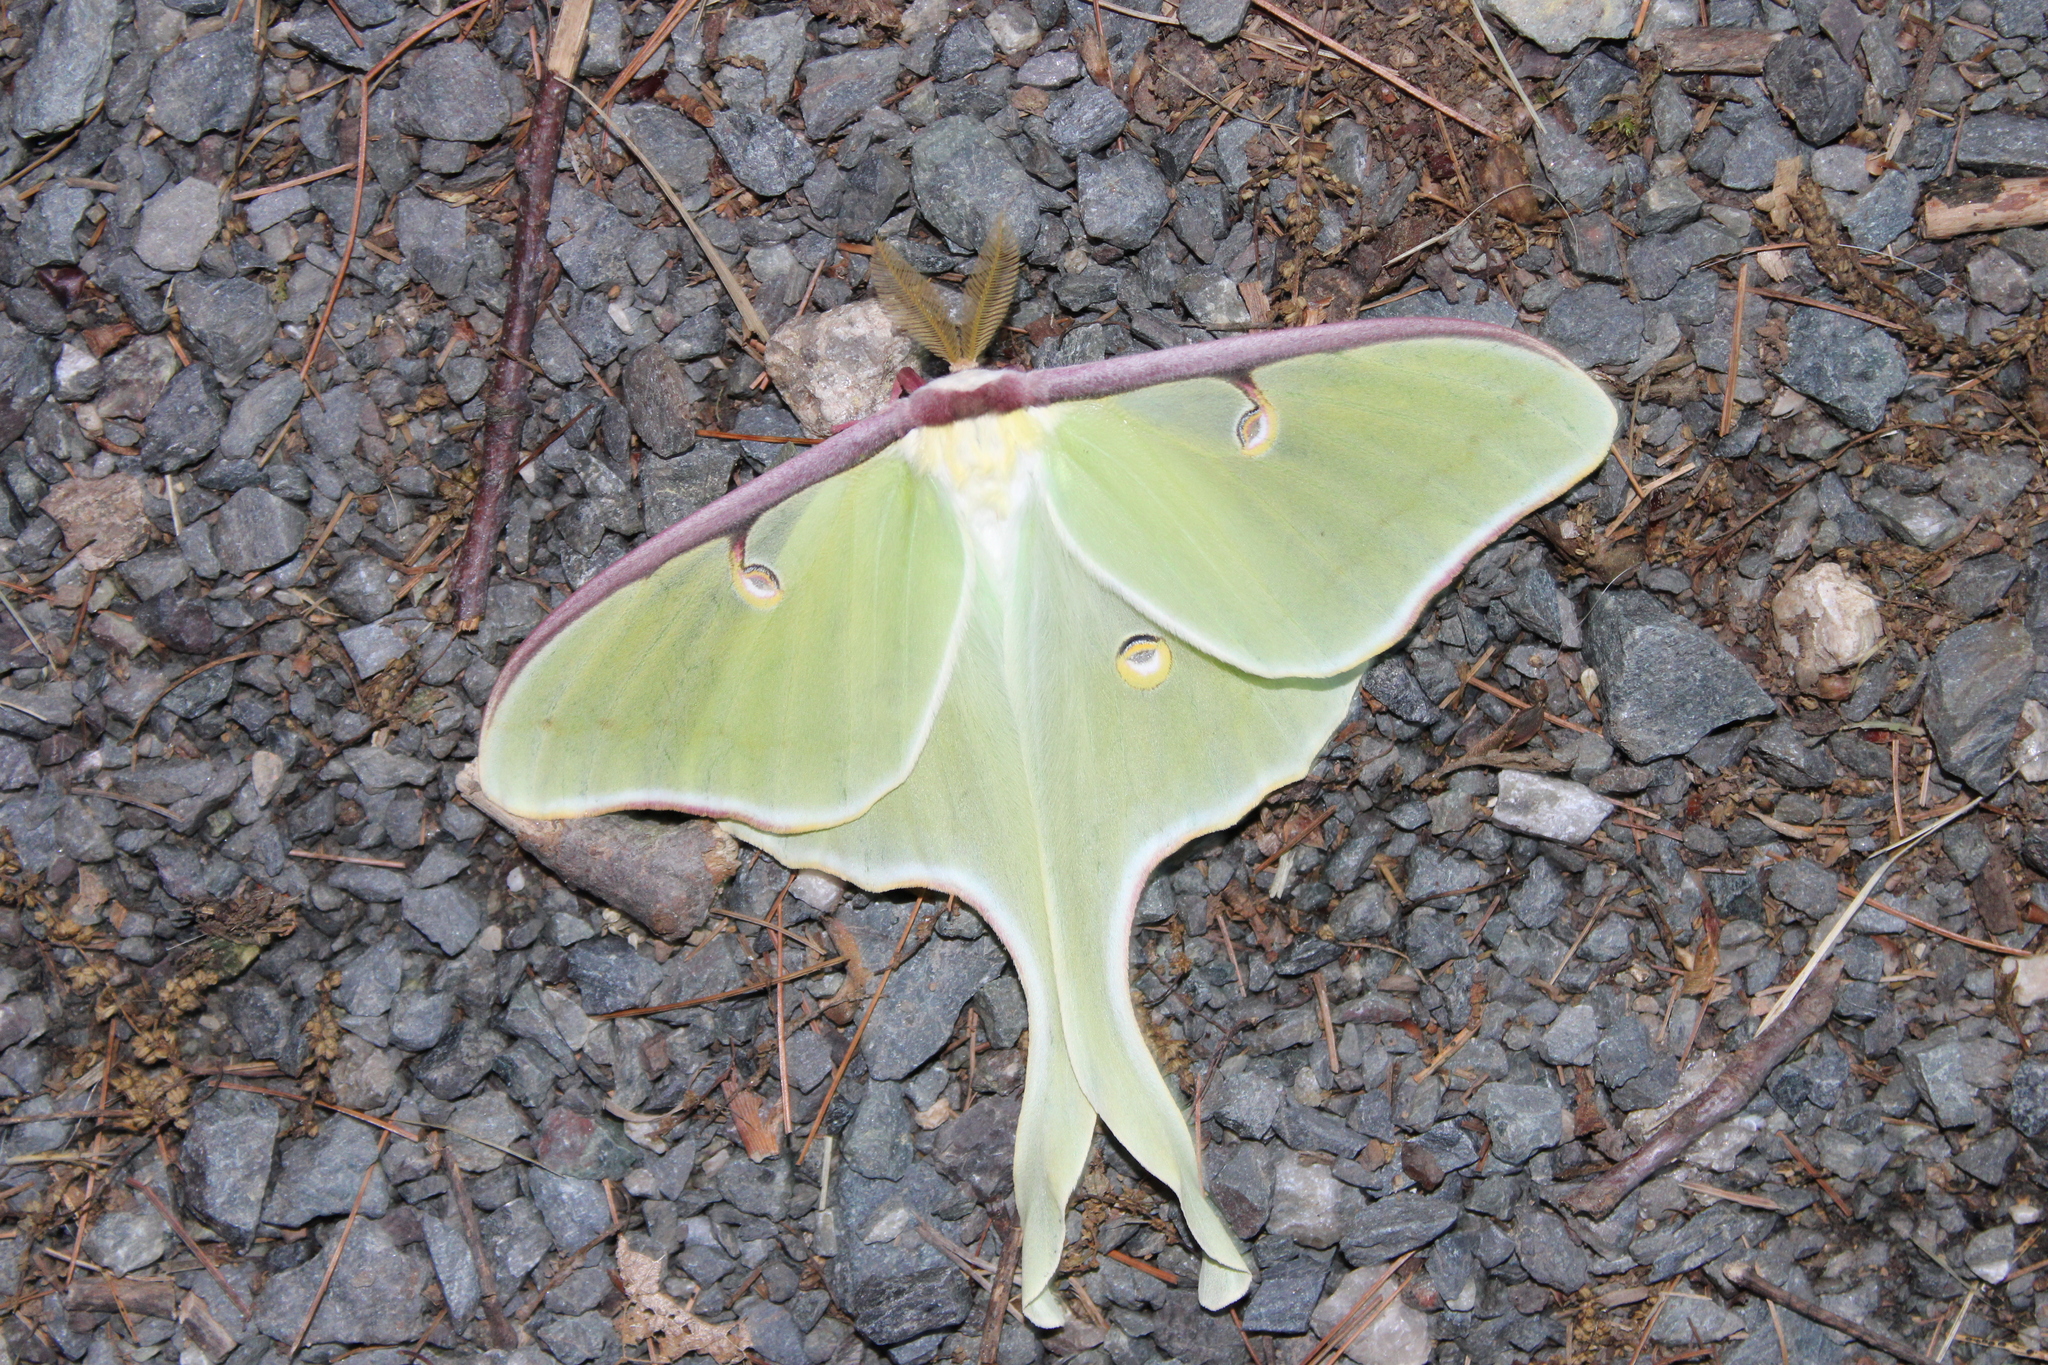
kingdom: Animalia
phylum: Arthropoda
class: Insecta
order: Lepidoptera
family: Saturniidae
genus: Actias
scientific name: Actias luna
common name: Luna moth
